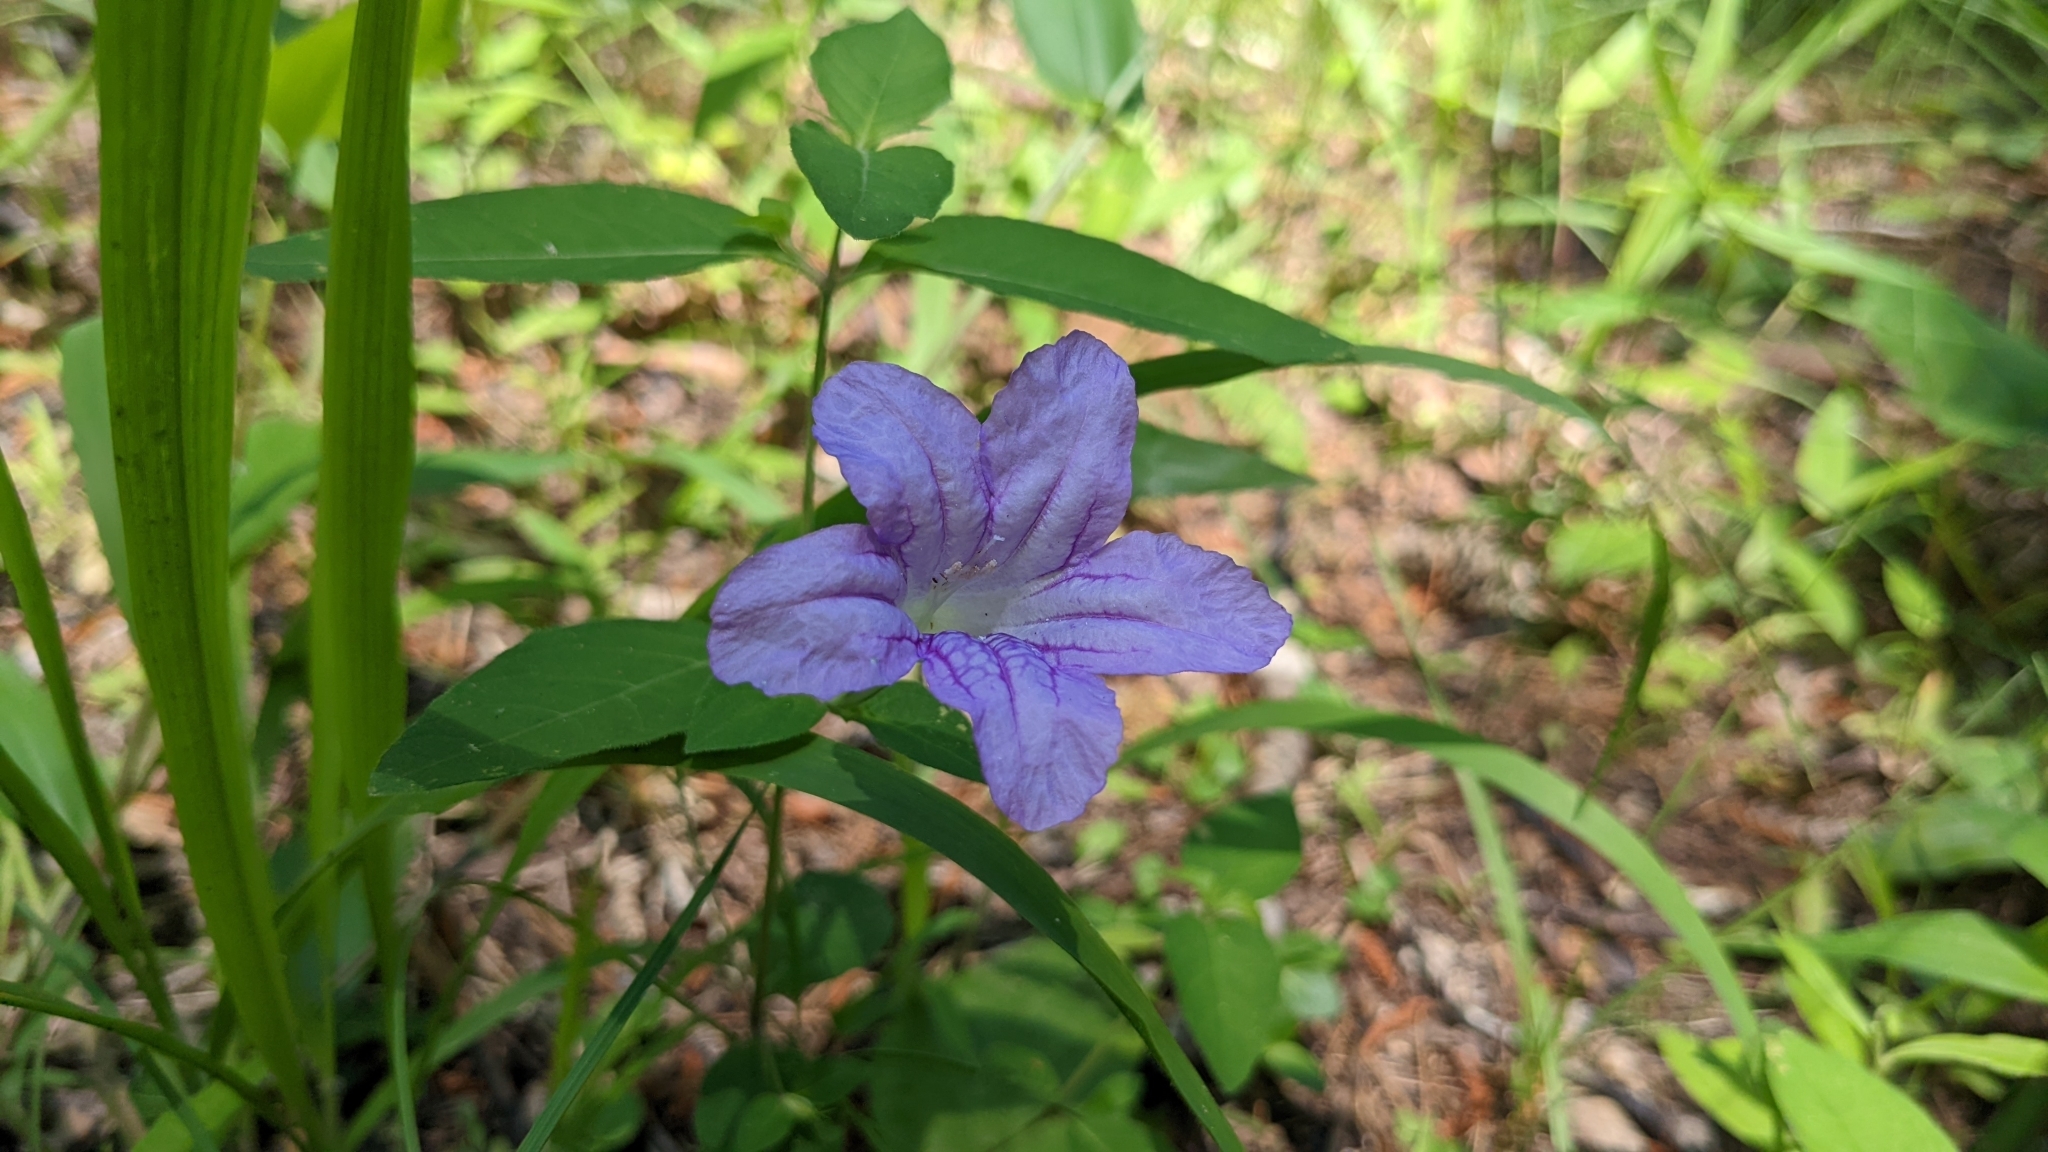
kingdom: Plantae
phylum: Tracheophyta
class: Magnoliopsida
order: Lamiales
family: Acanthaceae
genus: Ruellia
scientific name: Ruellia pedunculata
